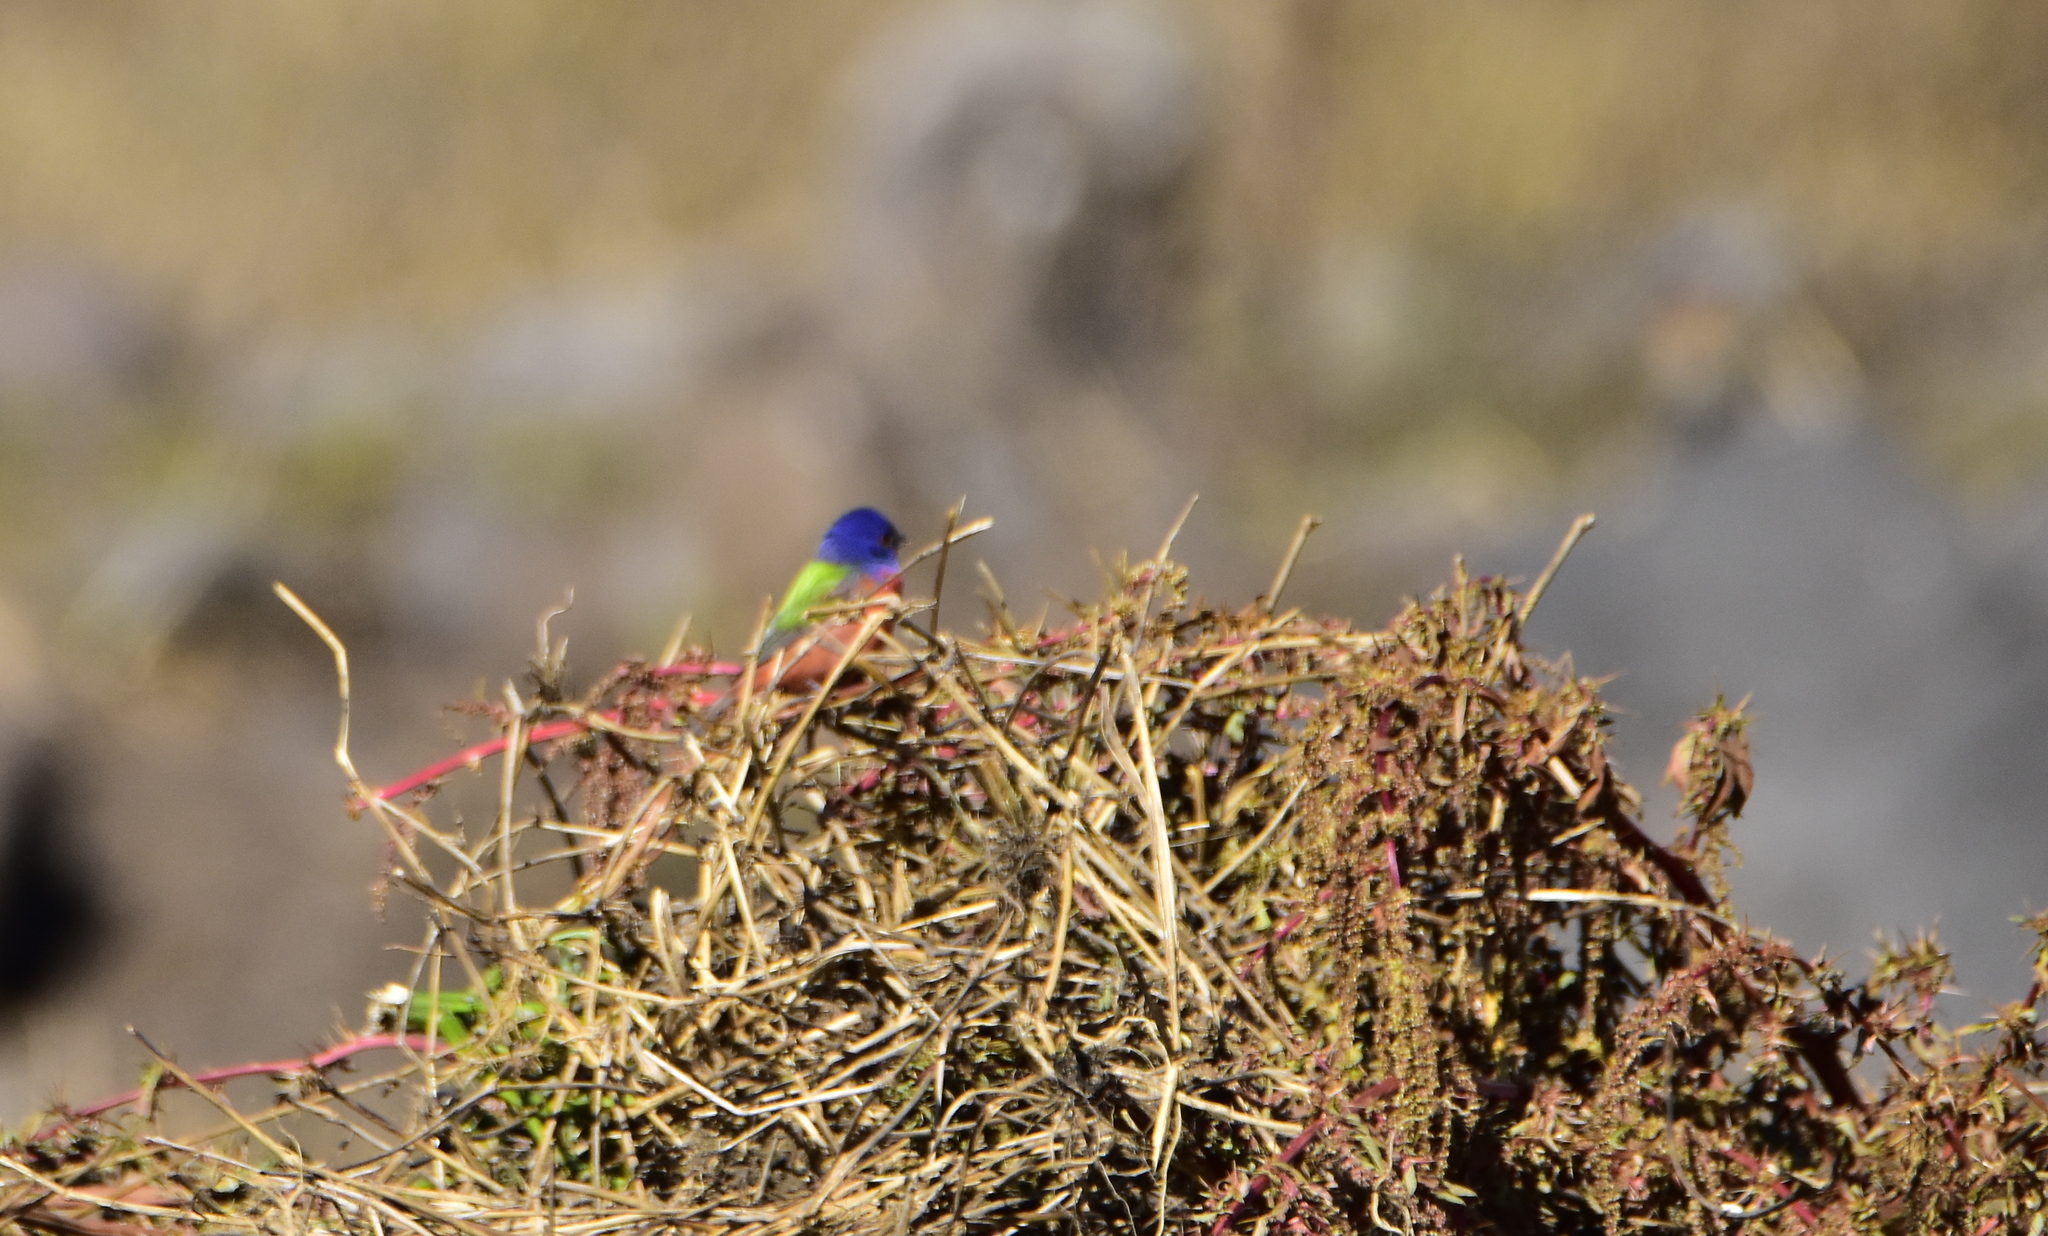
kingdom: Animalia
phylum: Chordata
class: Aves
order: Passeriformes
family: Cardinalidae
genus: Passerina
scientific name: Passerina ciris
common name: Painted bunting
